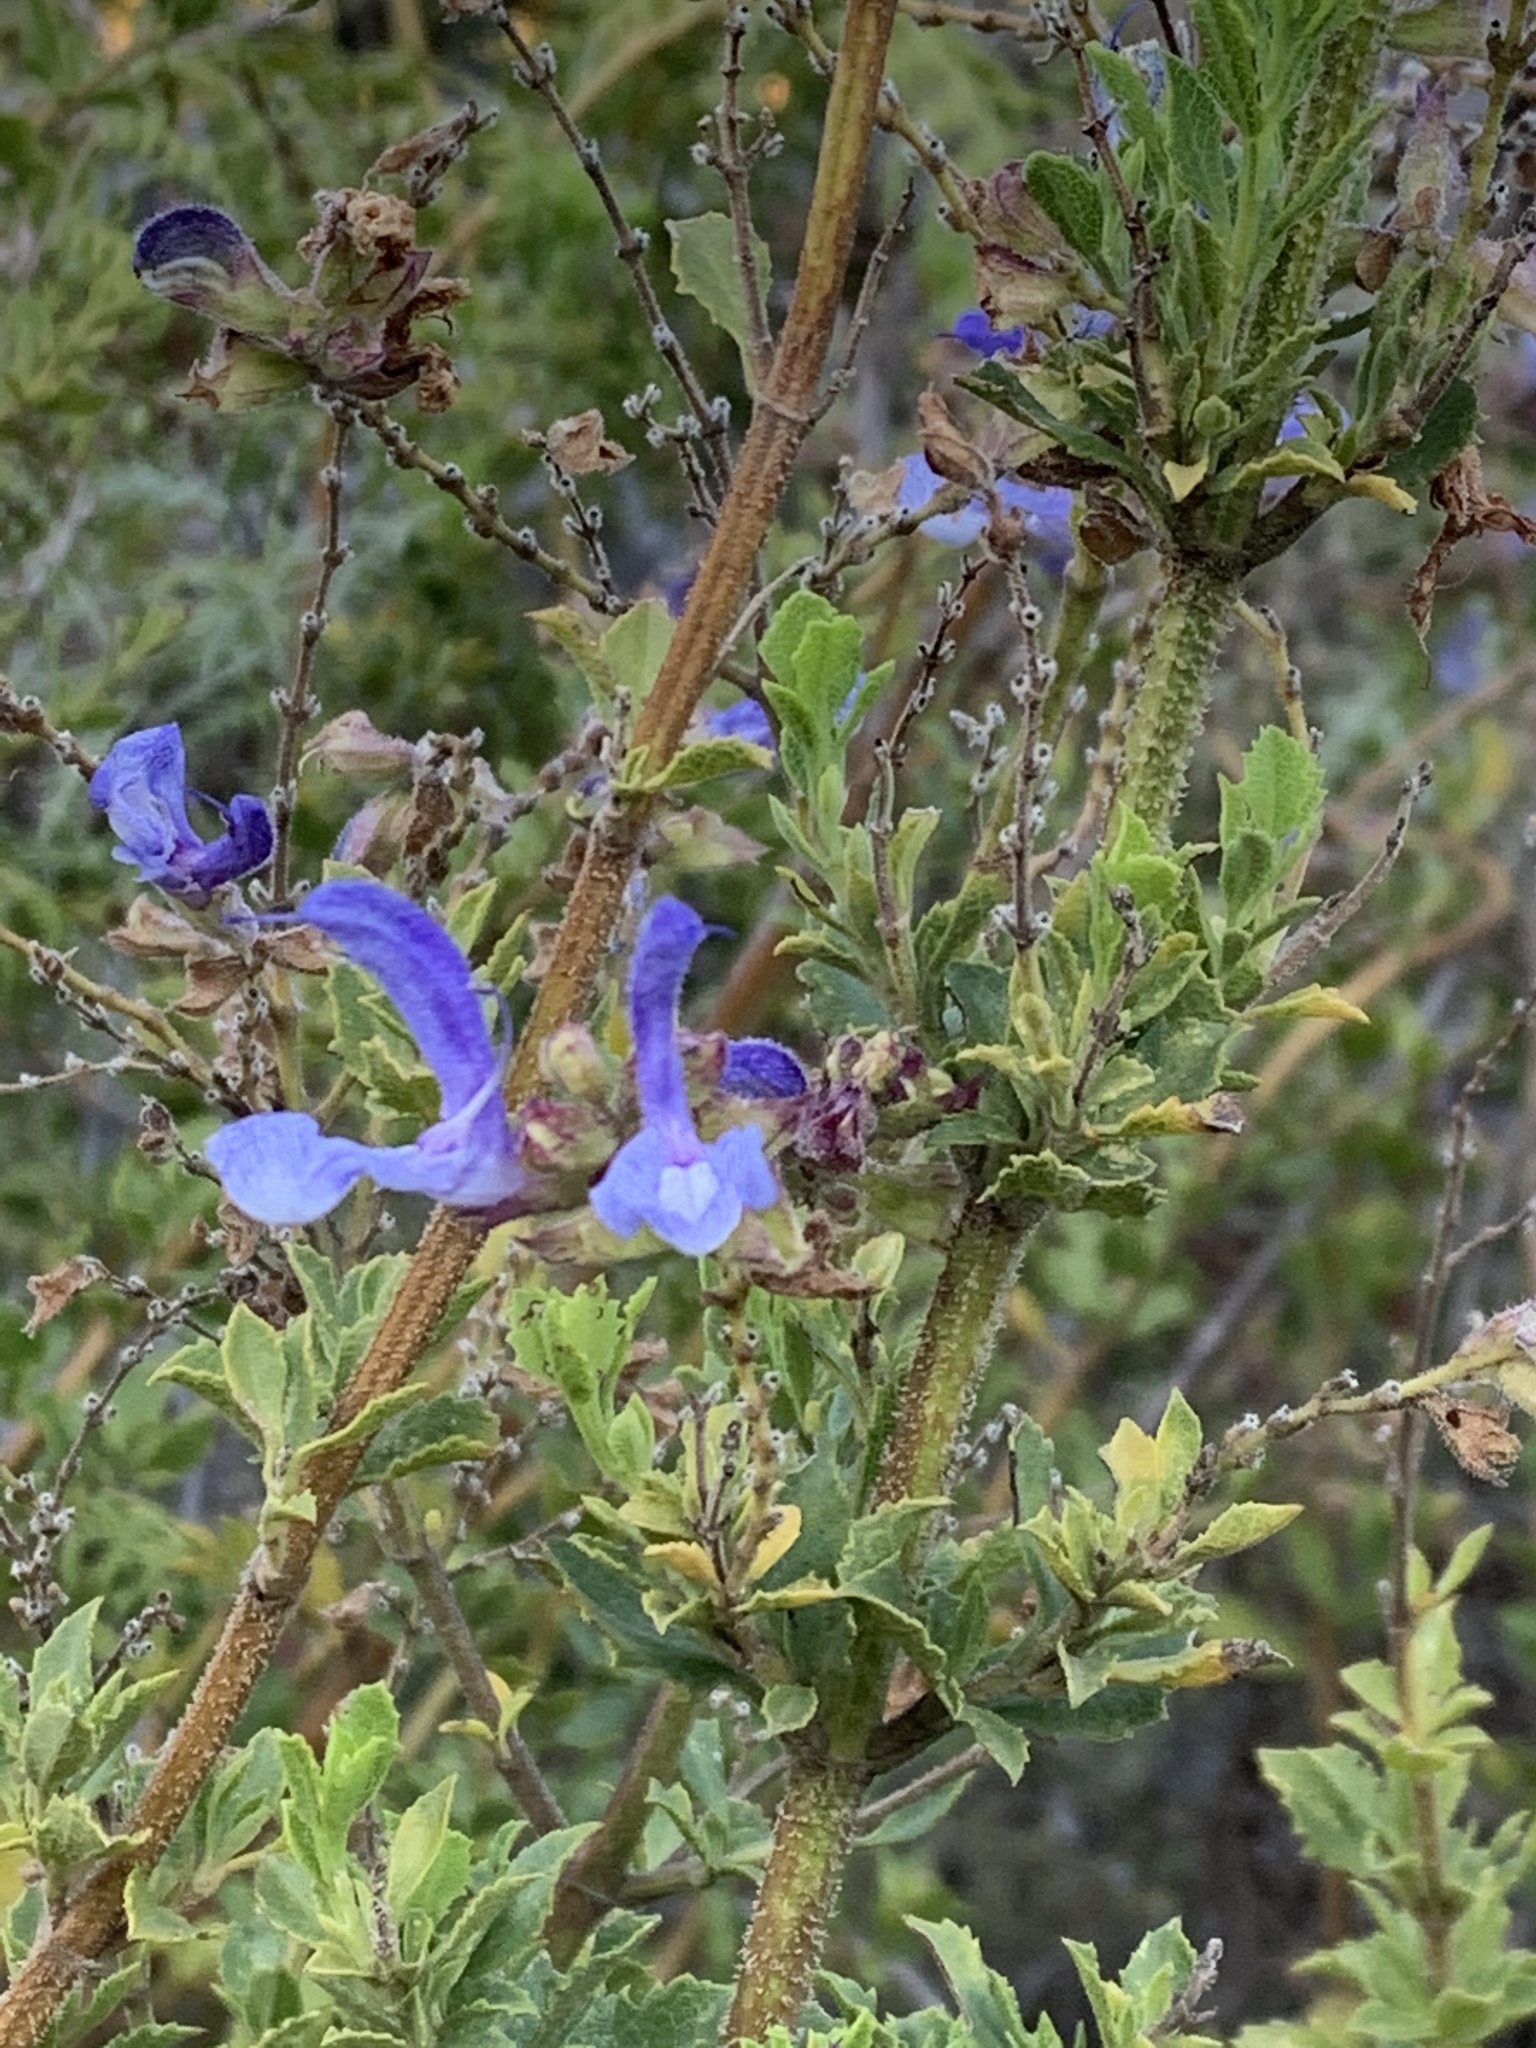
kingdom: Plantae
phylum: Tracheophyta
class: Magnoliopsida
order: Lamiales
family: Lamiaceae
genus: Salvia
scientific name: Salvia chamelaeagnea
